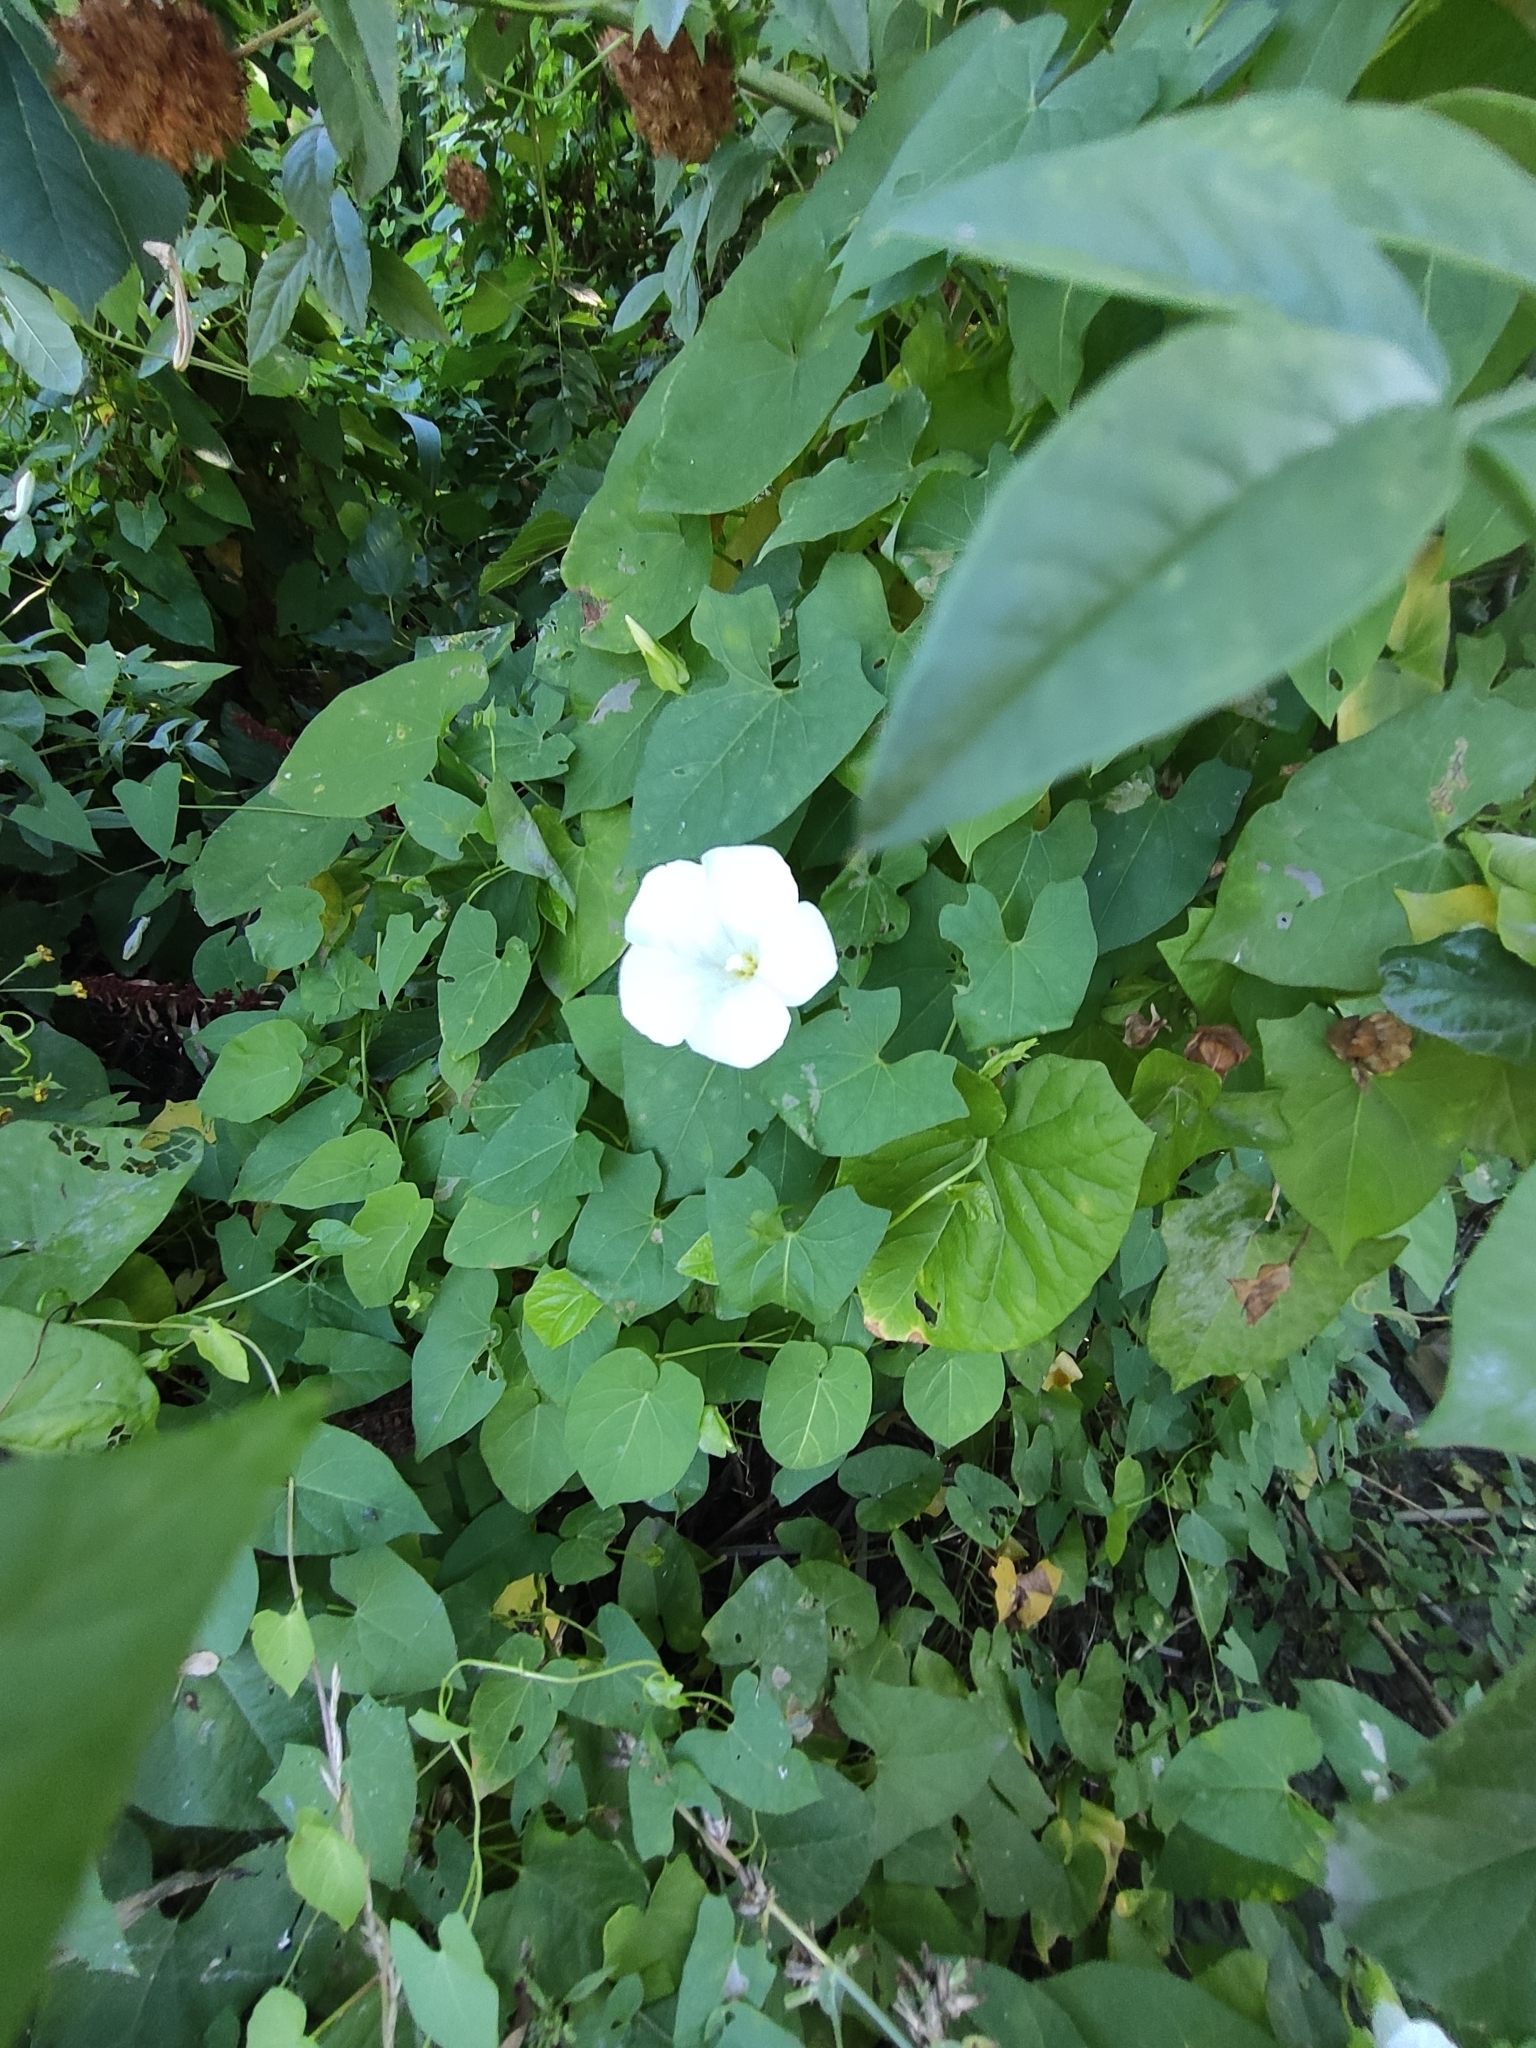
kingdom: Plantae
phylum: Tracheophyta
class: Magnoliopsida
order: Solanales
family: Convolvulaceae
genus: Calystegia
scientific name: Calystegia sepium
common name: Hedge bindweed
